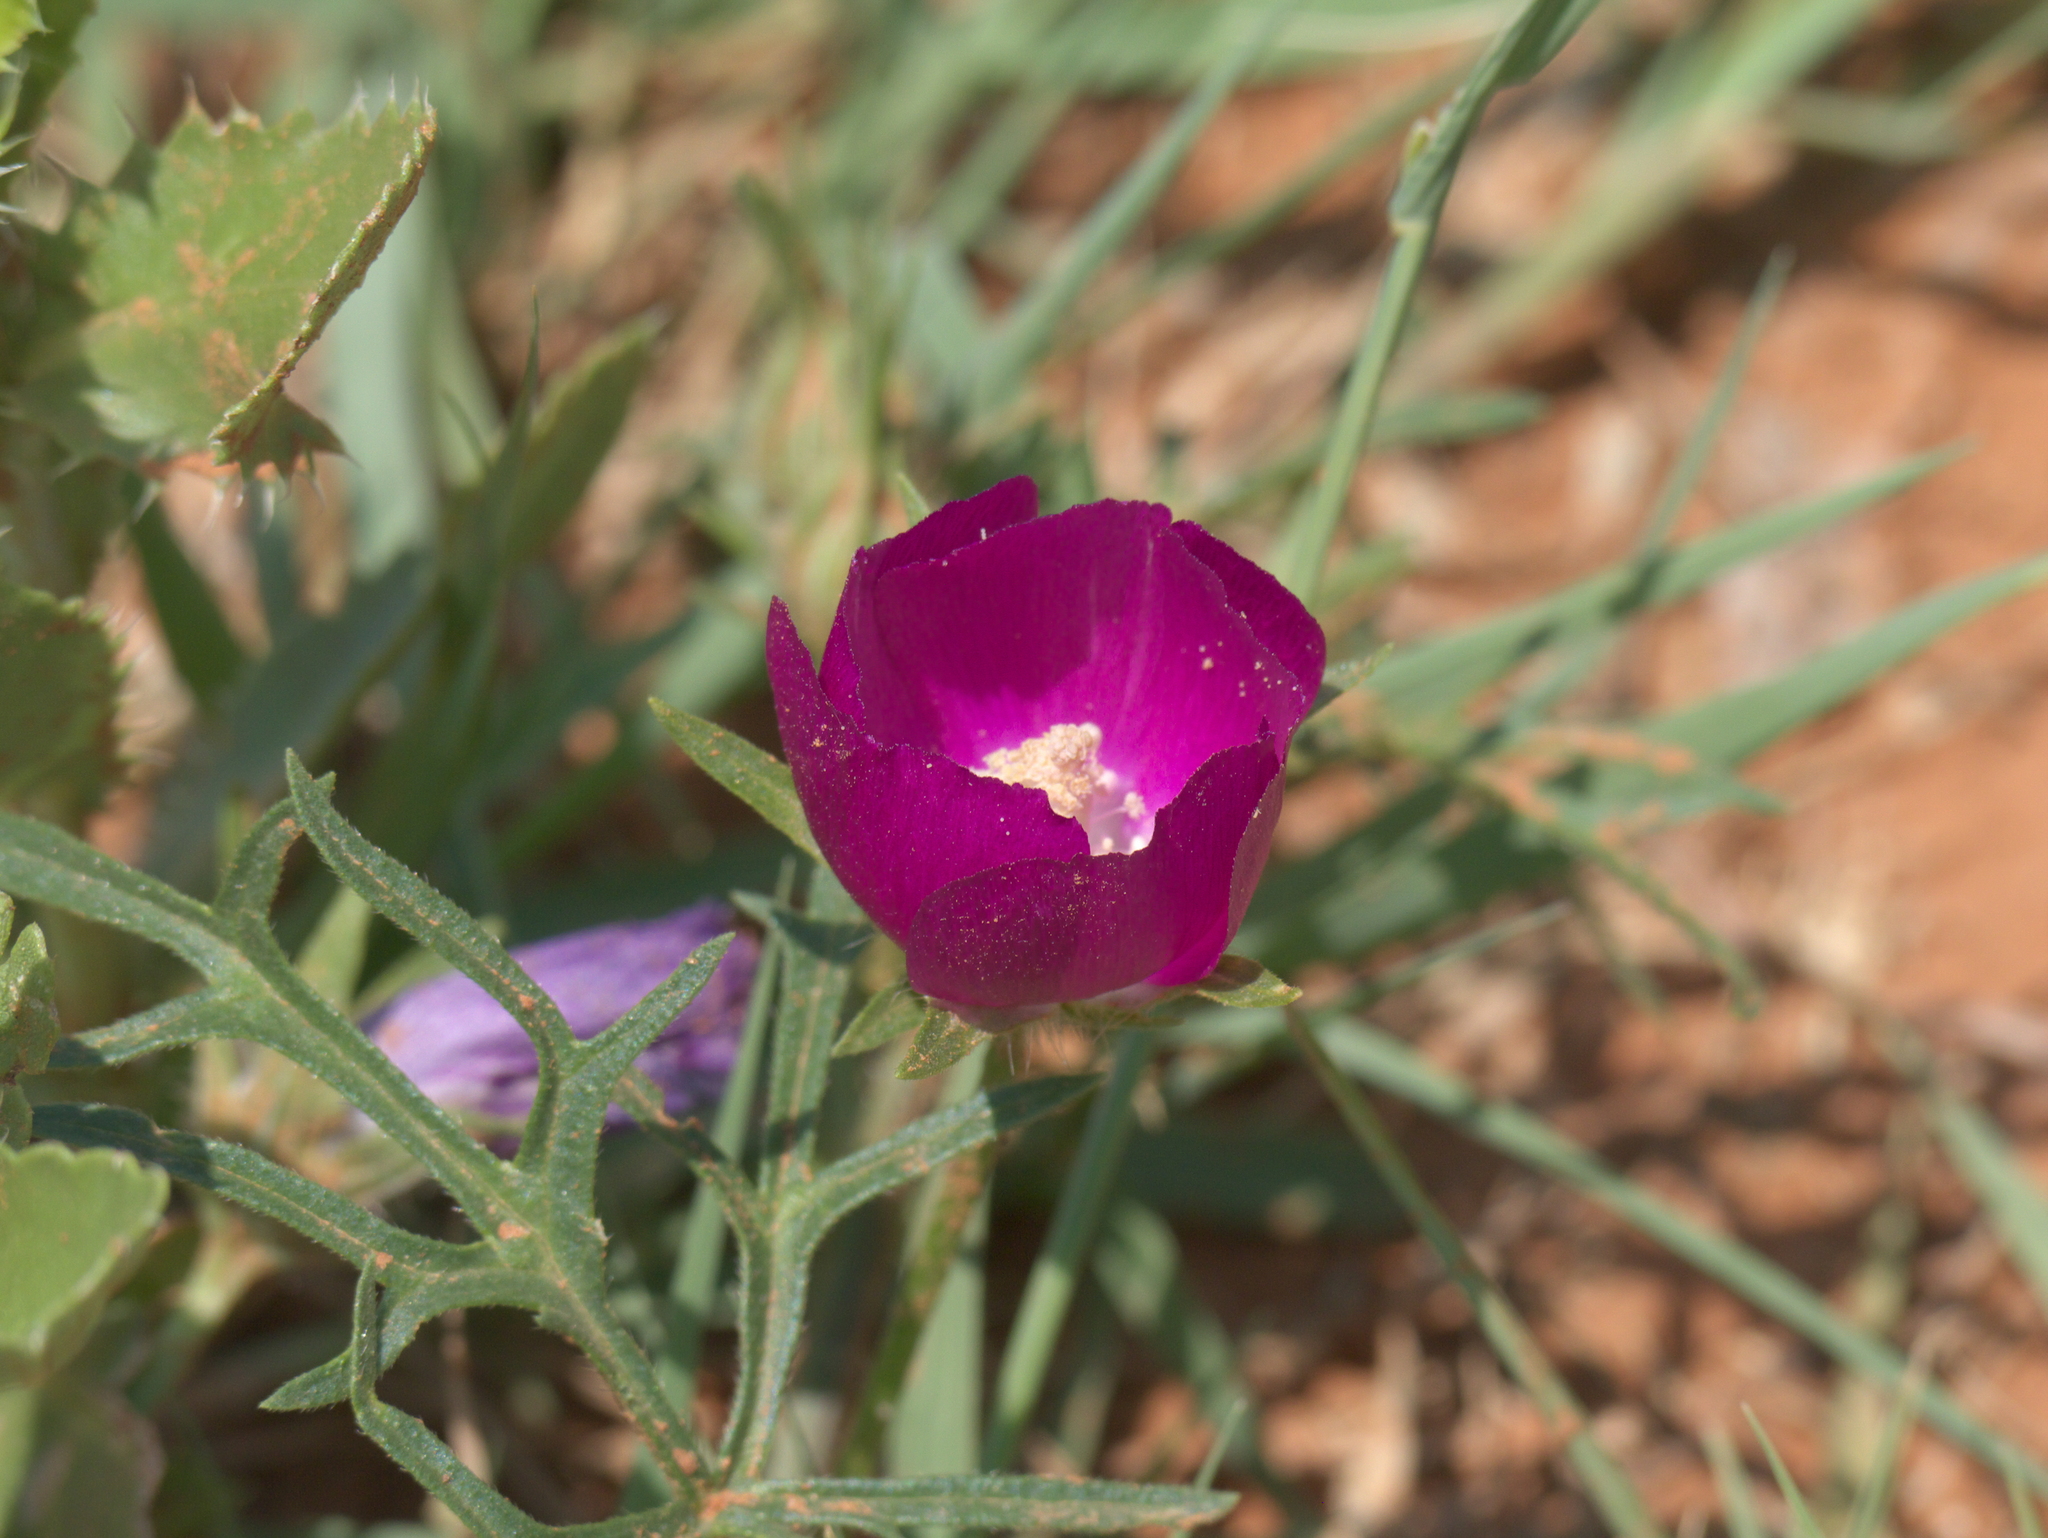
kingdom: Plantae
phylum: Tracheophyta
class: Magnoliopsida
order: Malvales
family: Malvaceae
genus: Callirhoe
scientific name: Callirhoe involucrata
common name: Purple poppy-mallow
